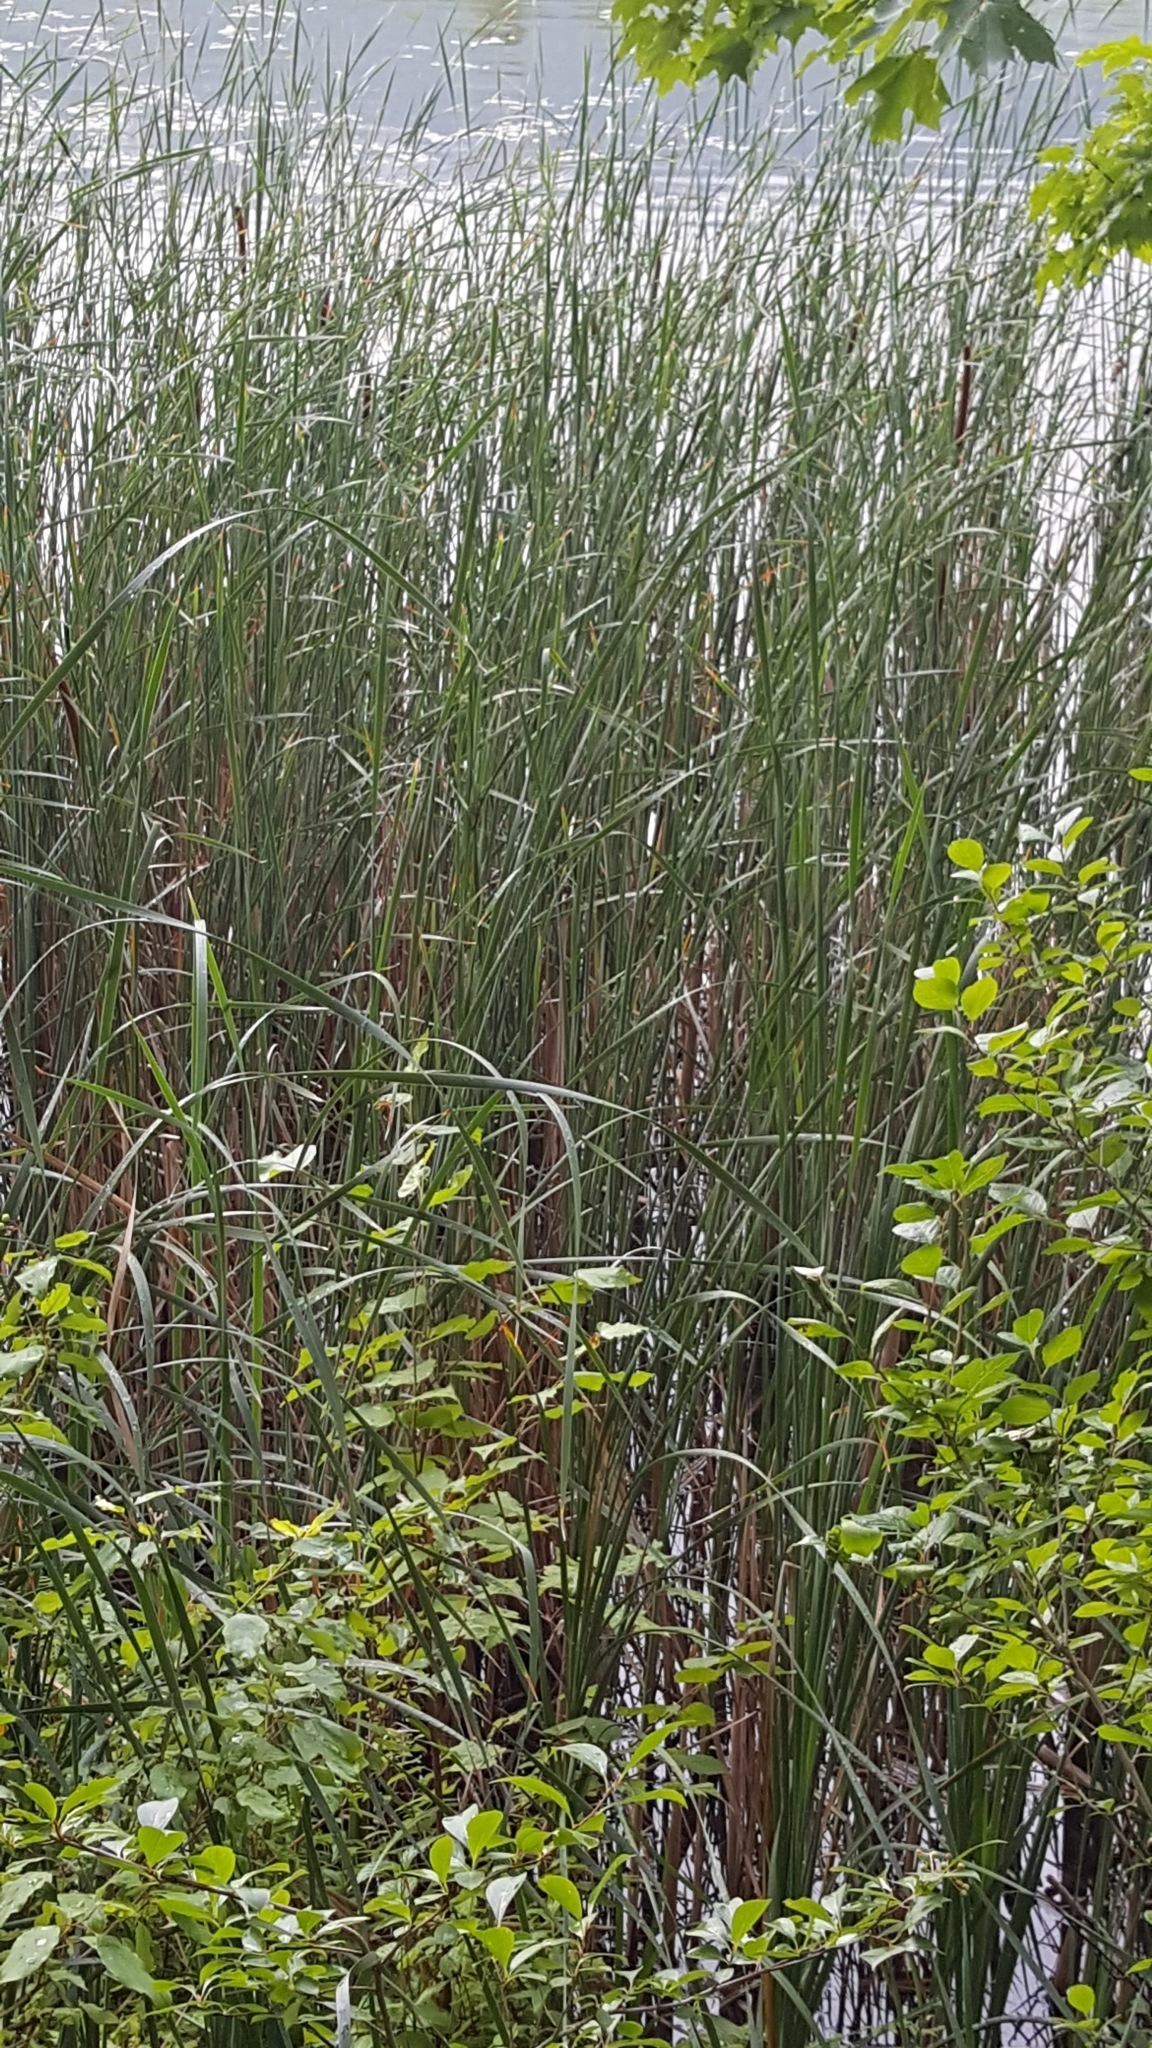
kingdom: Plantae
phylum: Tracheophyta
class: Liliopsida
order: Poales
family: Typhaceae
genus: Typha
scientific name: Typha angustifolia
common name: Lesser bulrush
